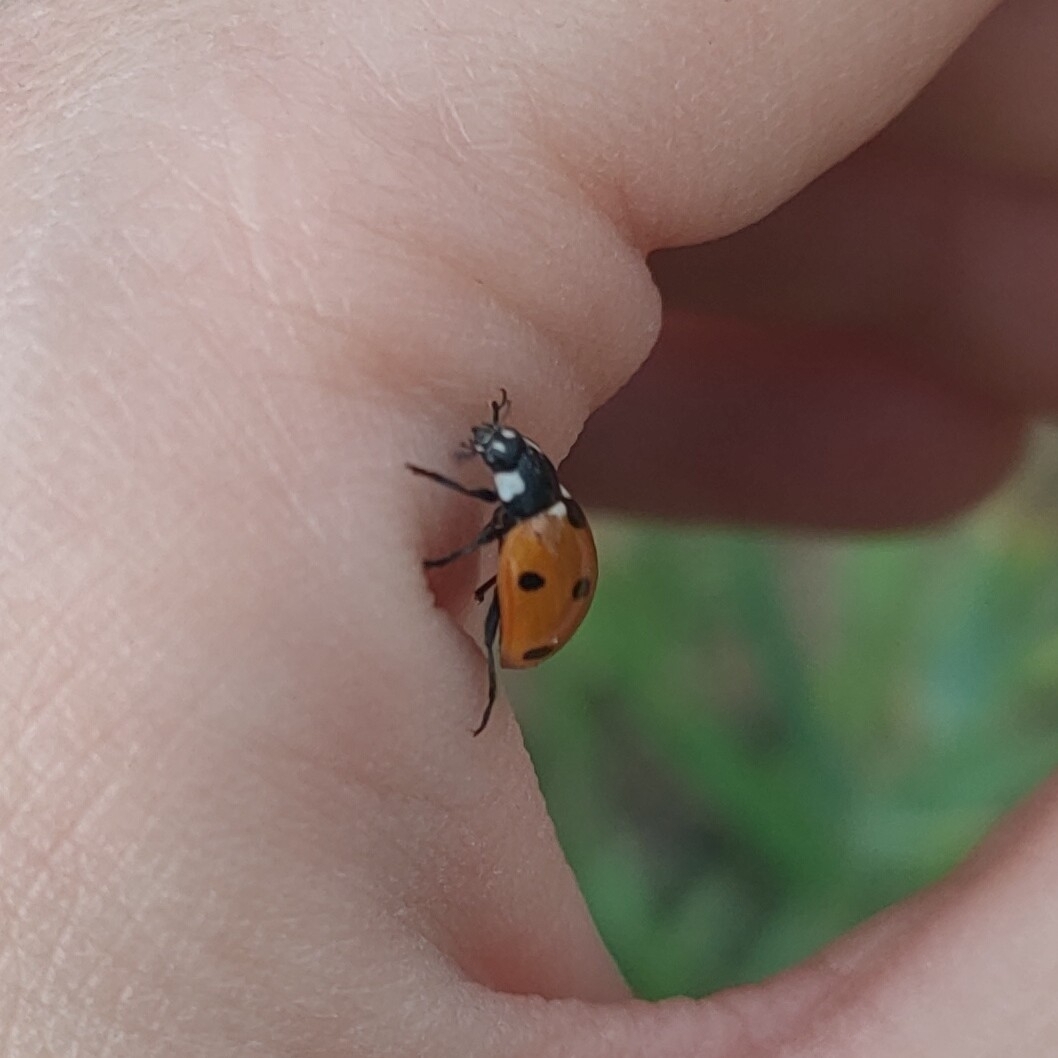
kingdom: Animalia
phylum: Arthropoda
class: Insecta
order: Coleoptera
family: Coccinellidae
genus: Coccinella
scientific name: Coccinella septempunctata
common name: Sevenspotted lady beetle
